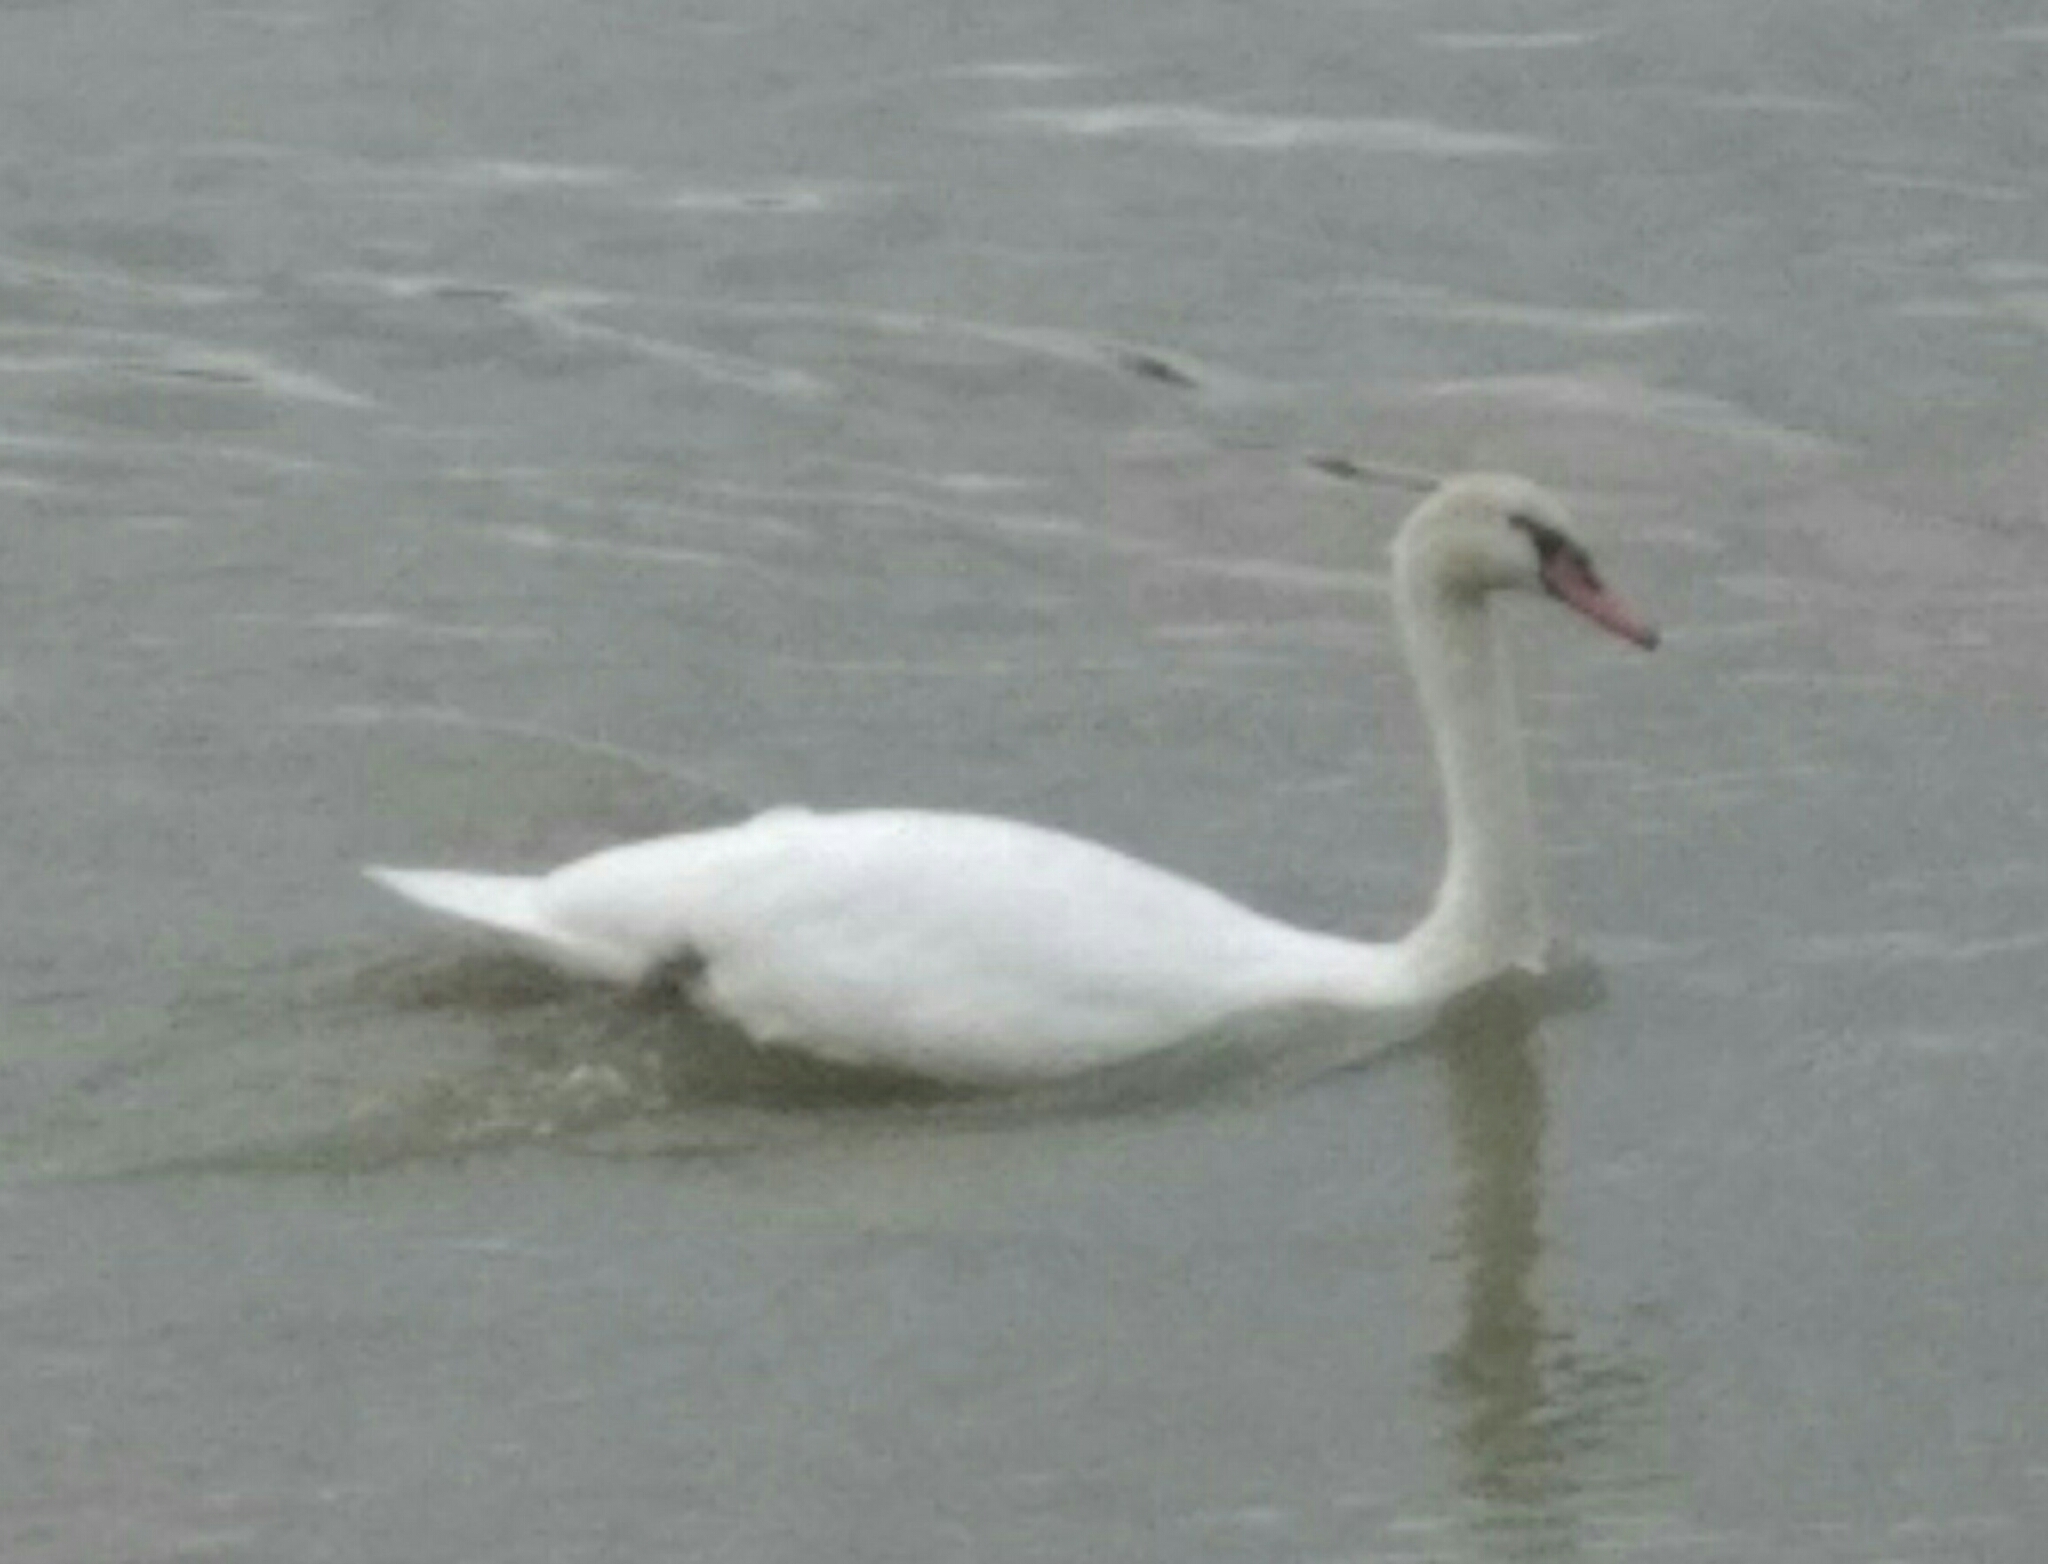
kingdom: Animalia
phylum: Chordata
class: Aves
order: Anseriformes
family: Anatidae
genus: Cygnus
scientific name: Cygnus olor
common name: Mute swan
